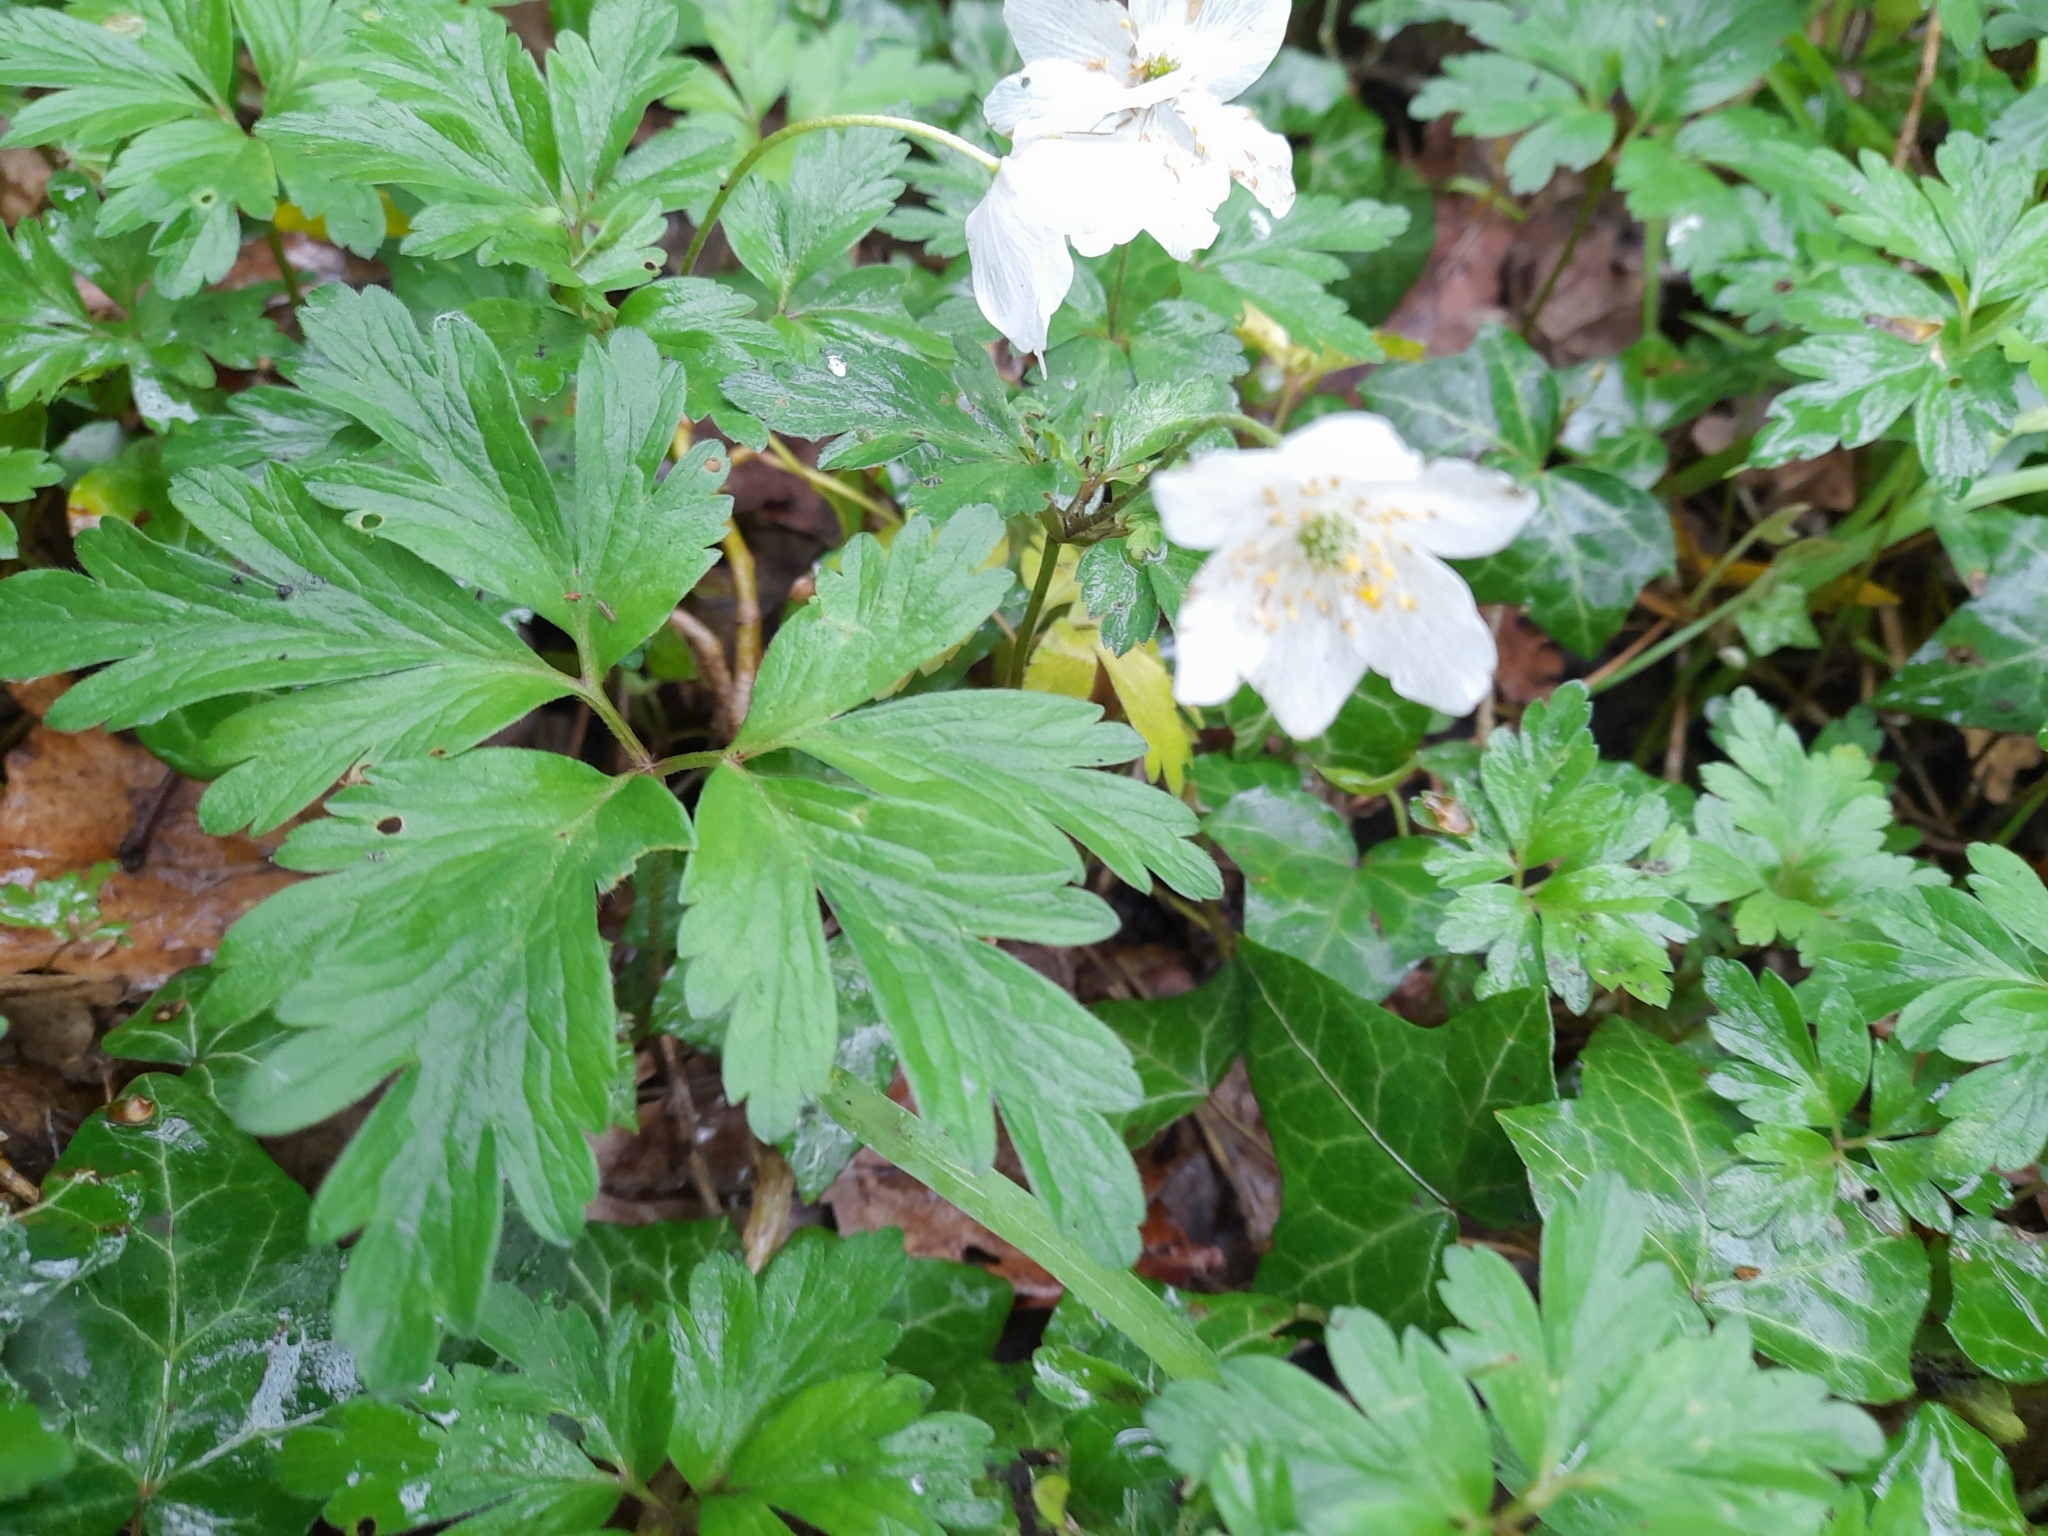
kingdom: Plantae
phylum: Tracheophyta
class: Magnoliopsida
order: Ranunculales
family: Ranunculaceae
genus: Anemone
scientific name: Anemone nemorosa
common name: Wood anemone
